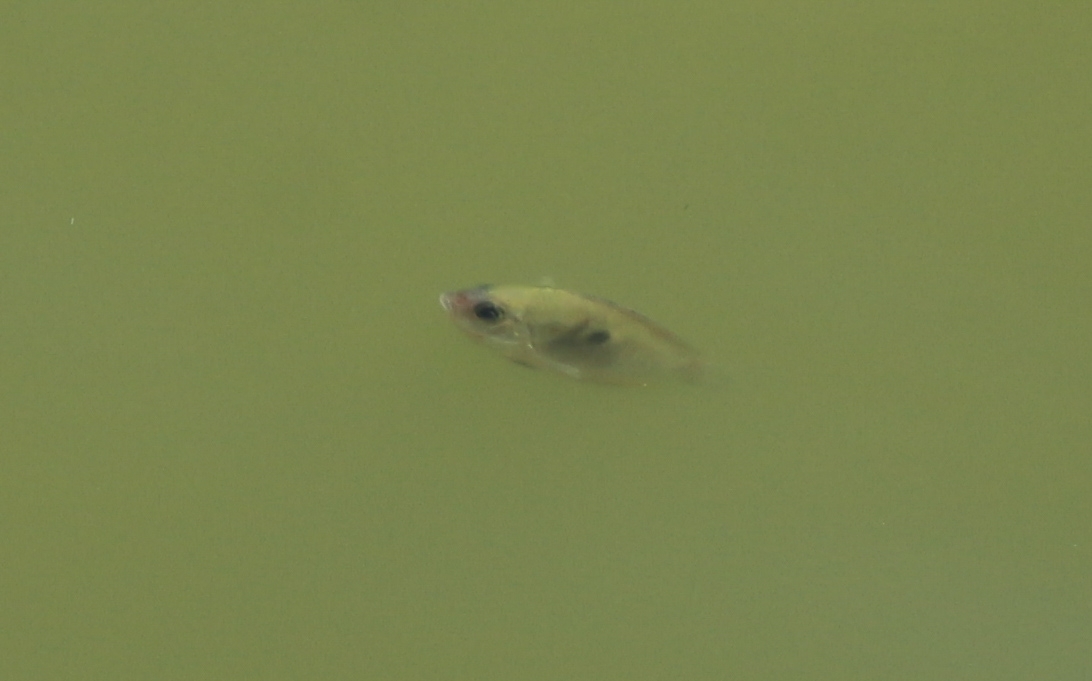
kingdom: Animalia
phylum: Chordata
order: Perciformes
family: Cichlidae
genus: Etroplus
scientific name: Etroplus maculatus
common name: Orange chromide
